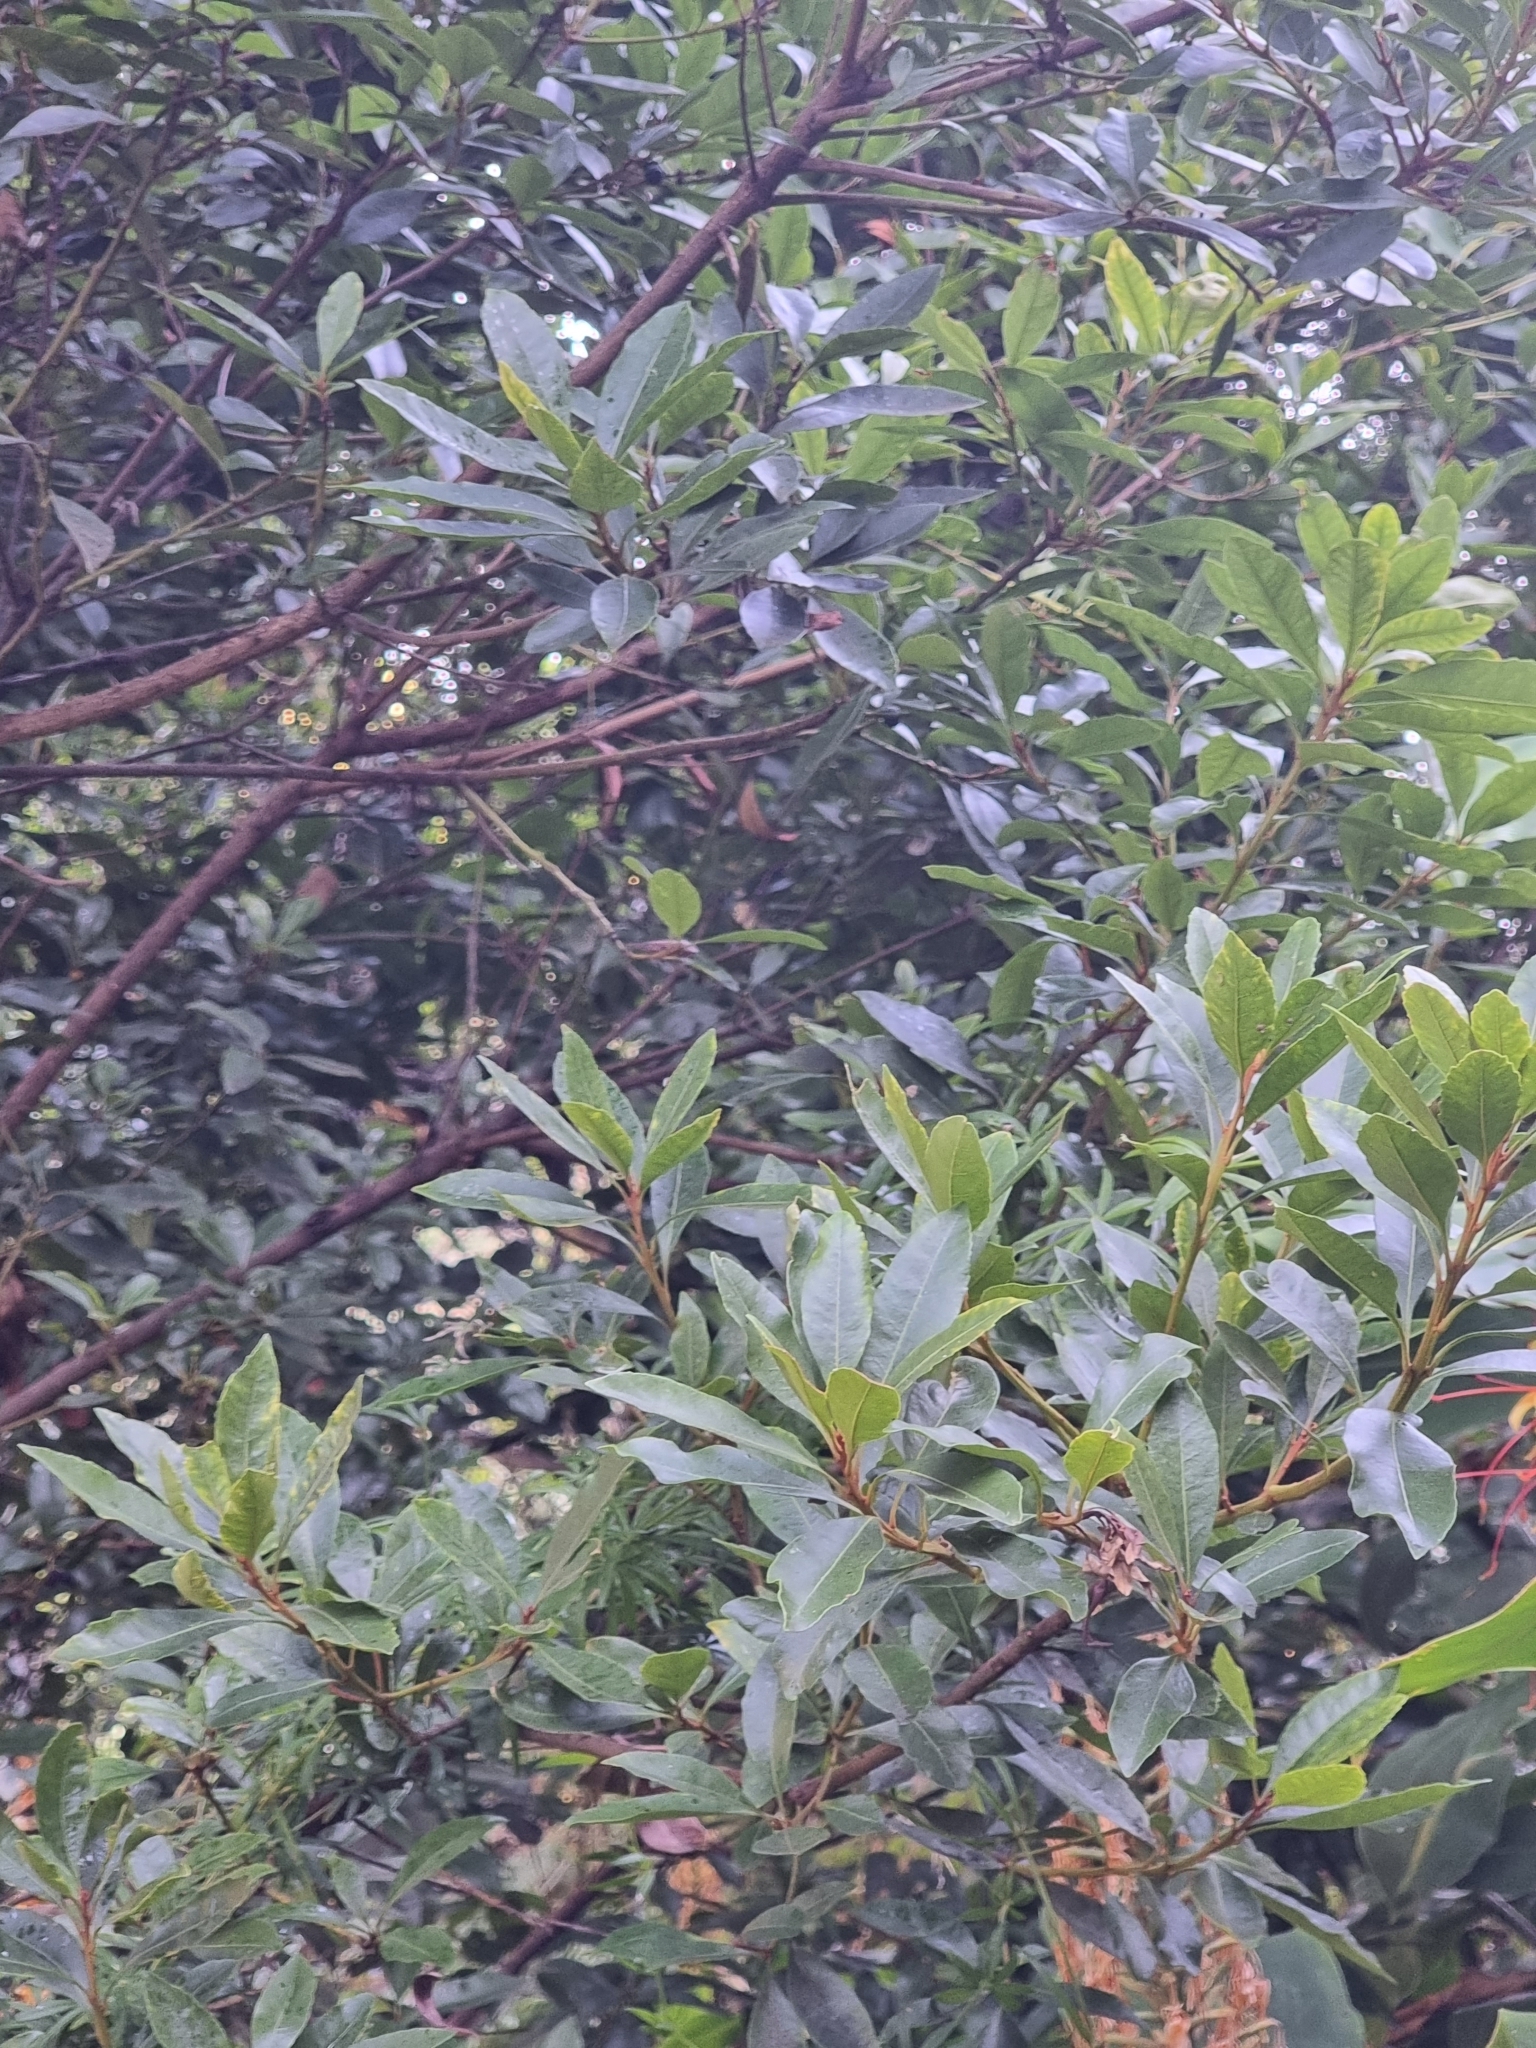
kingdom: Plantae
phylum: Tracheophyta
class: Magnoliopsida
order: Fagales
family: Myricaceae
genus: Morella
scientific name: Morella faya
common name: Firetree
